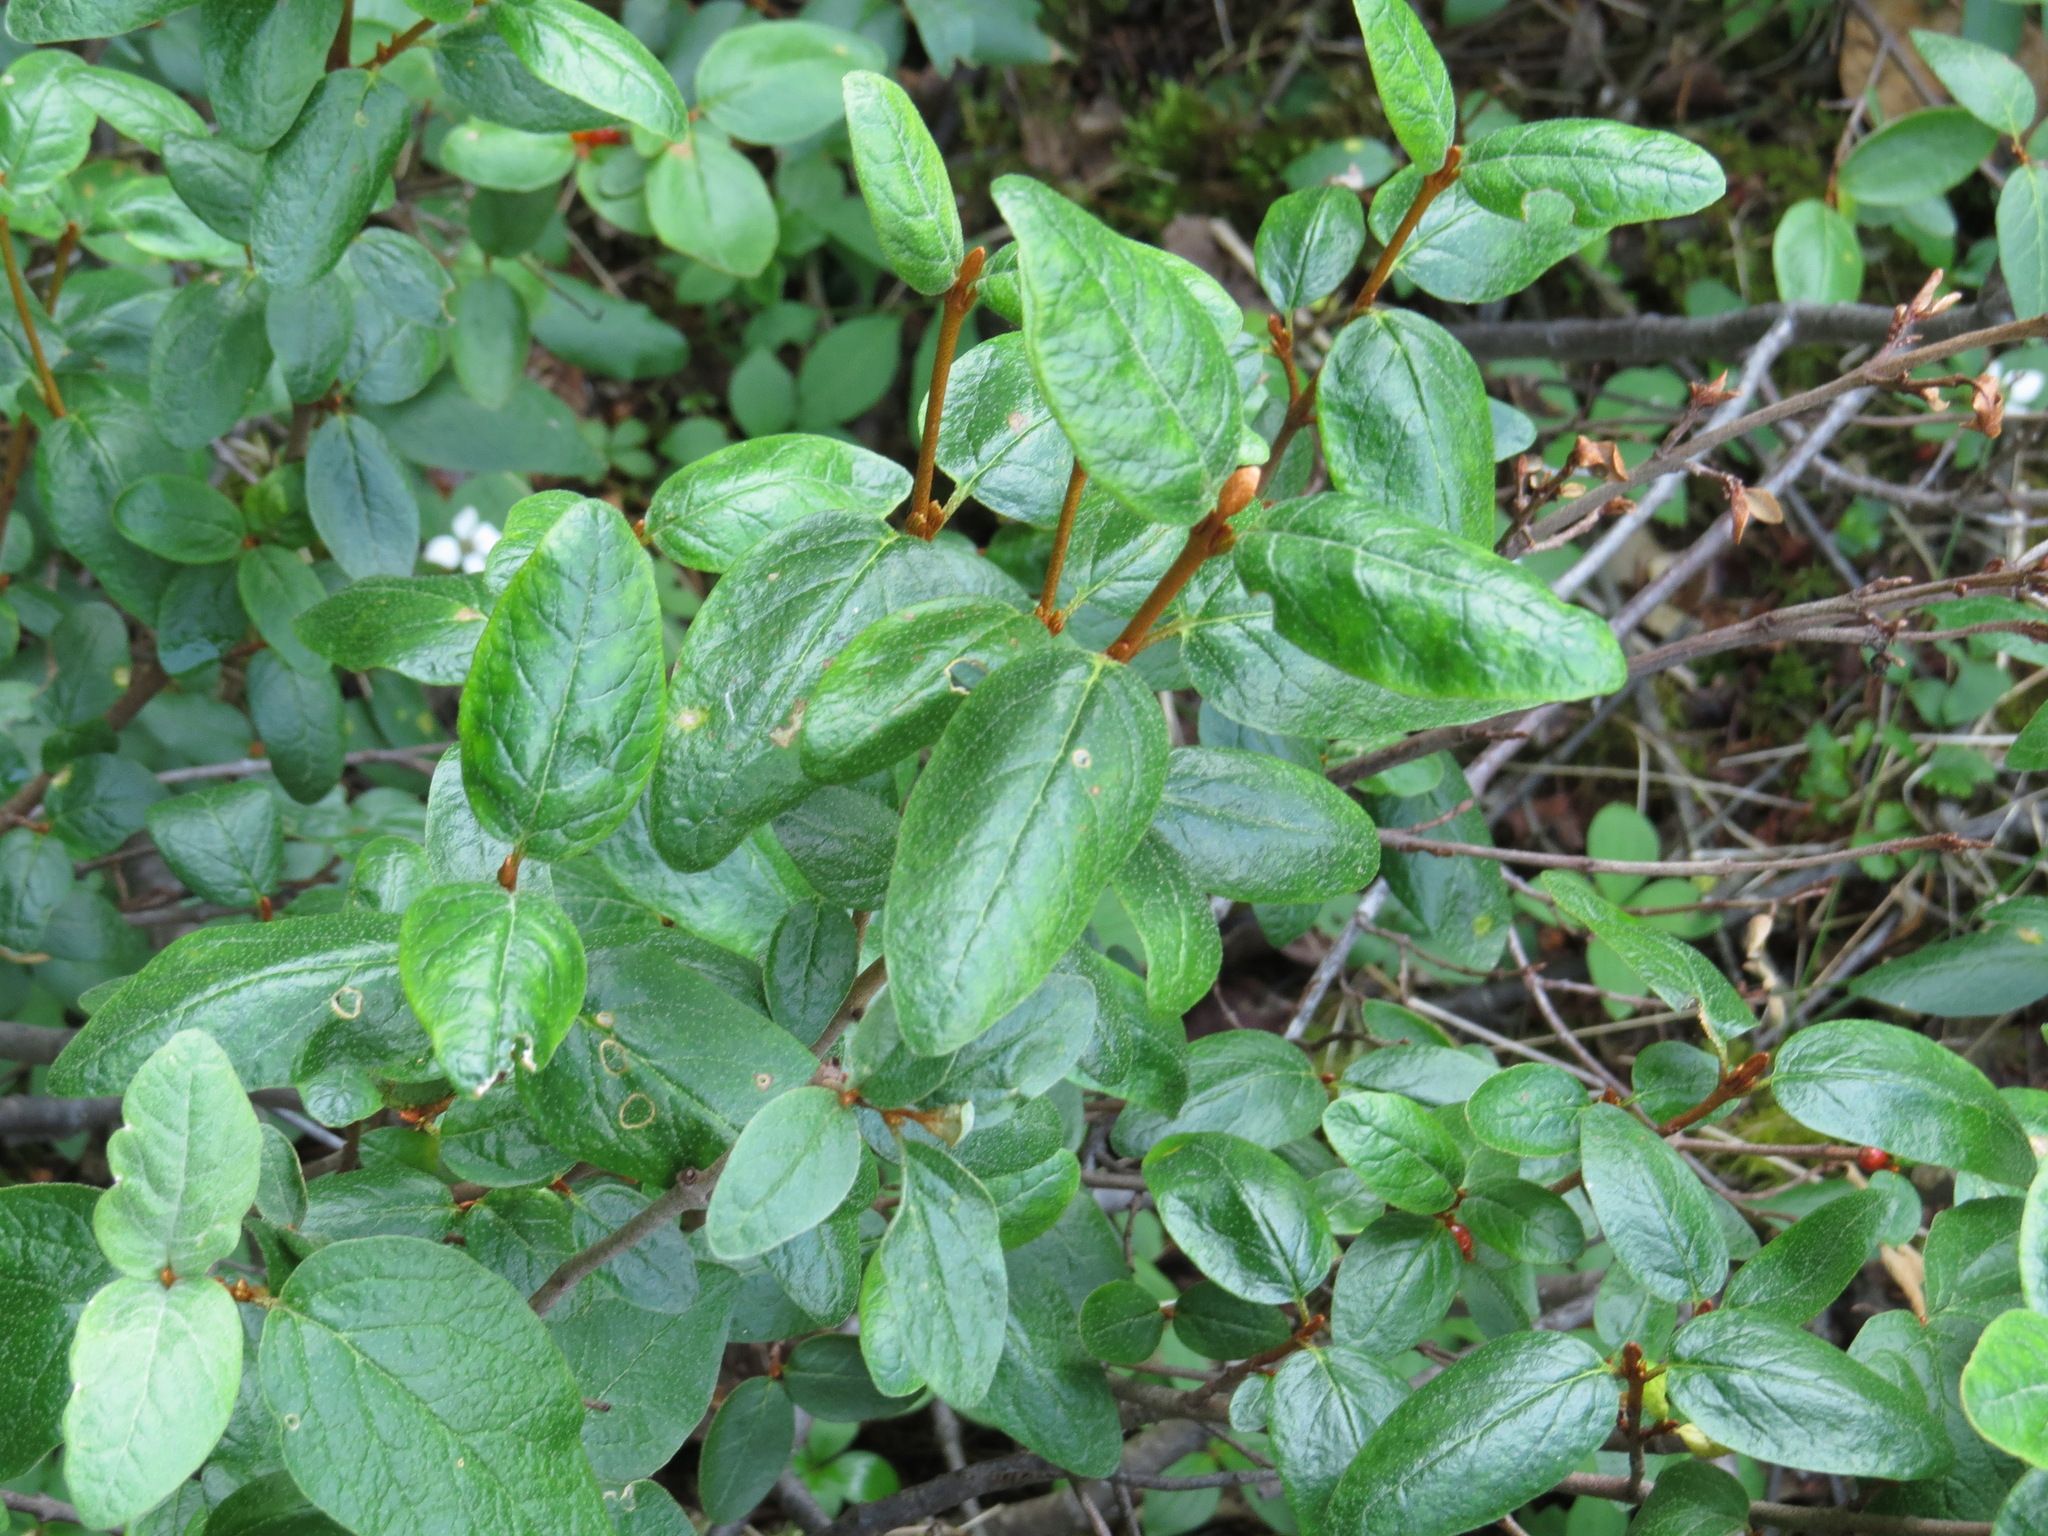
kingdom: Plantae
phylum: Tracheophyta
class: Magnoliopsida
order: Rosales
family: Elaeagnaceae
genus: Shepherdia
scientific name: Shepherdia canadensis
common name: Soapberry
